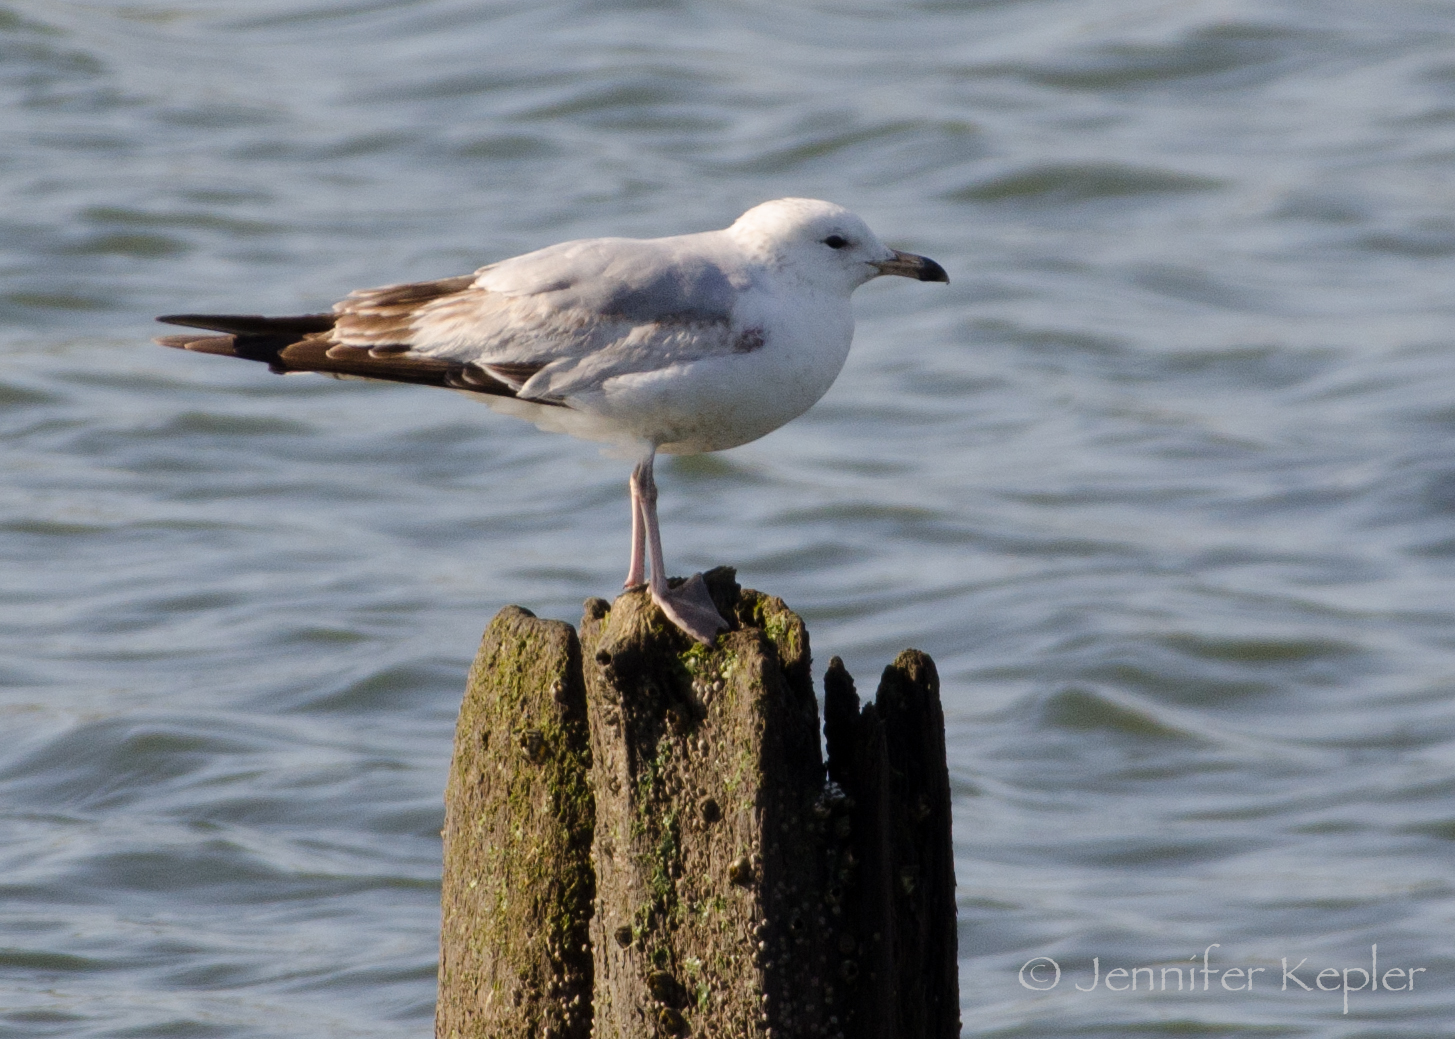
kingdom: Animalia
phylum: Chordata
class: Aves
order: Charadriiformes
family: Laridae
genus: Larus
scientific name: Larus delawarensis
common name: Ring-billed gull
